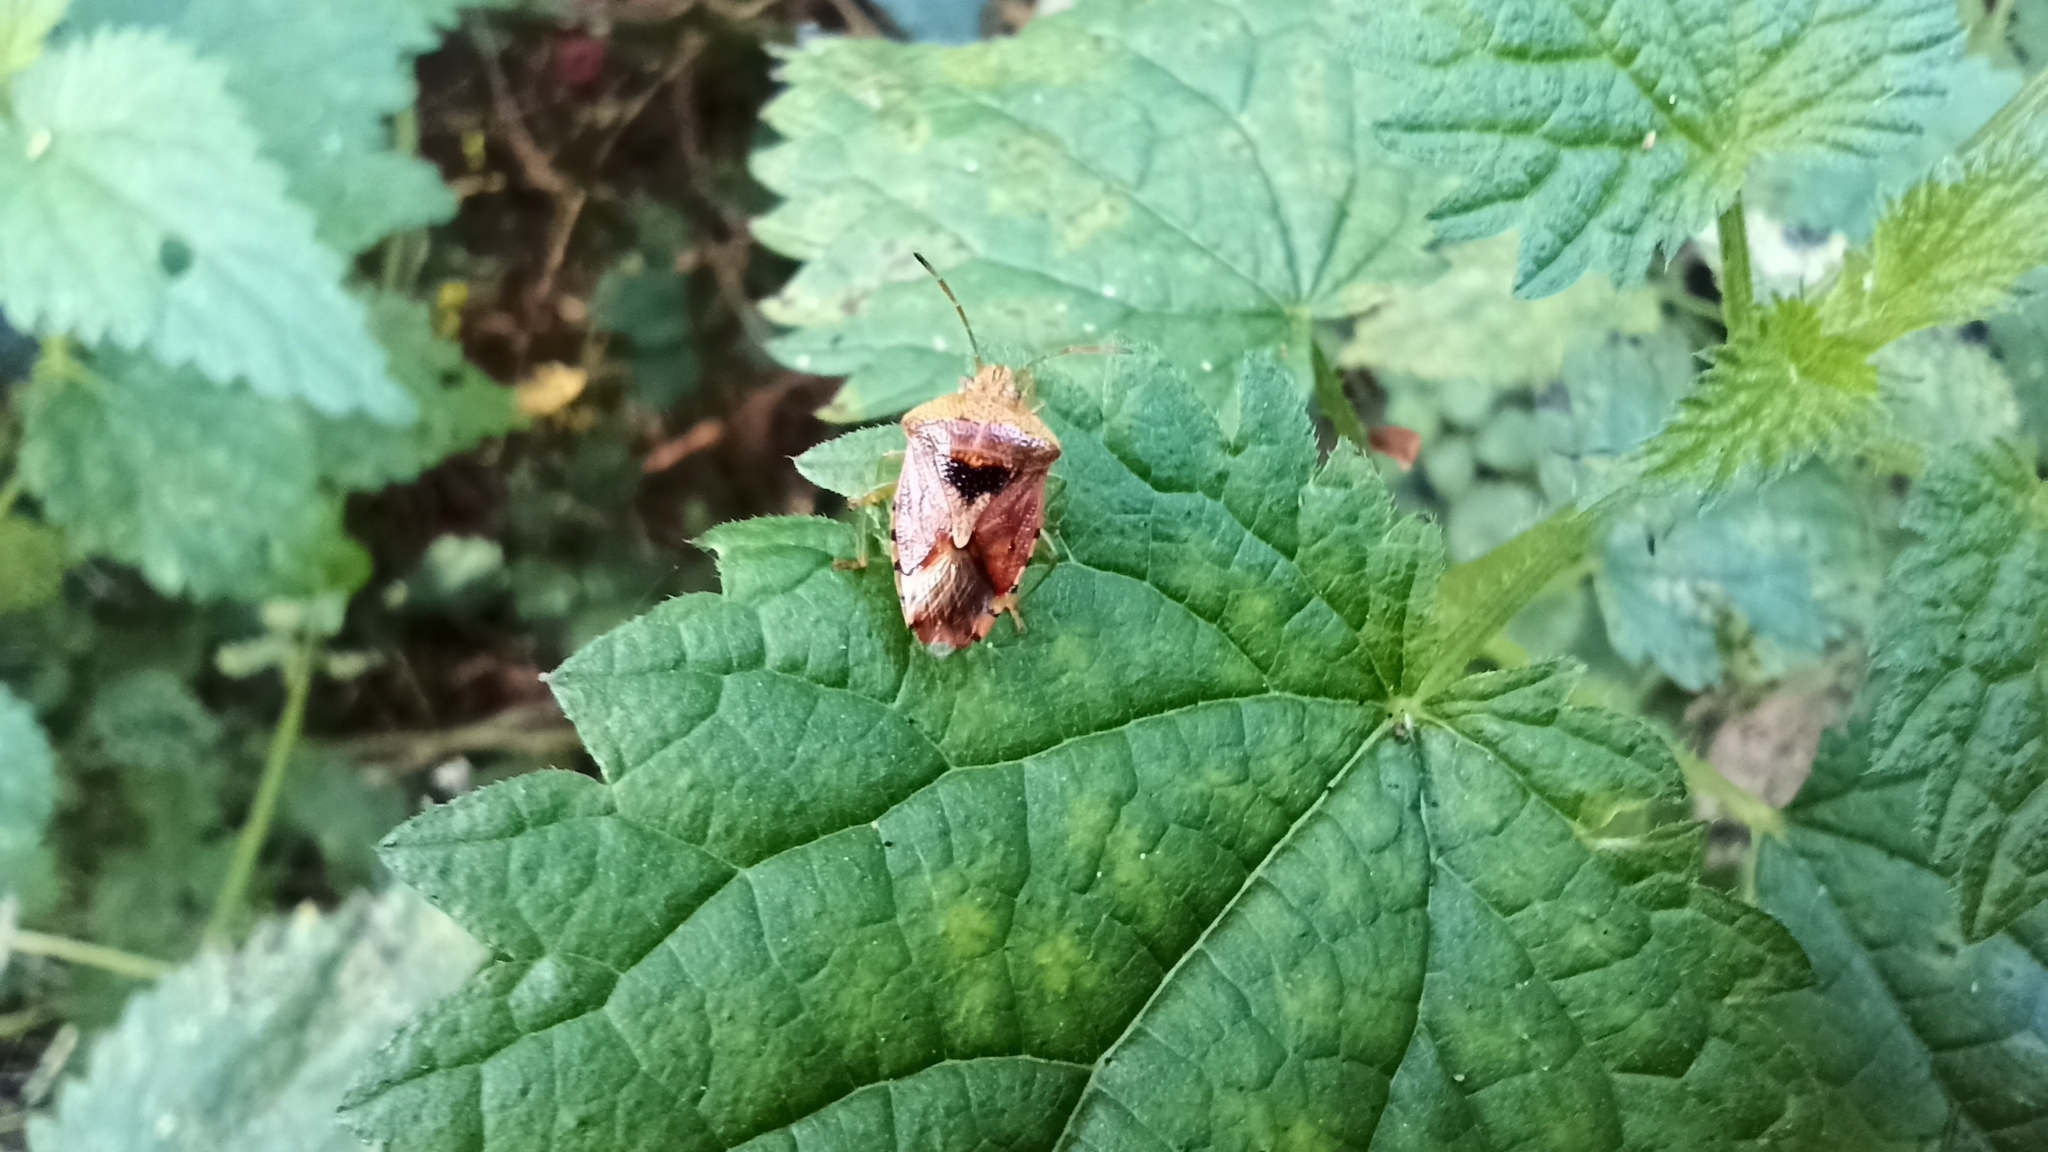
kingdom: Animalia
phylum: Arthropoda
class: Insecta
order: Hemiptera
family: Acanthosomatidae
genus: Elasmucha
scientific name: Elasmucha grisea
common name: Parent bug
